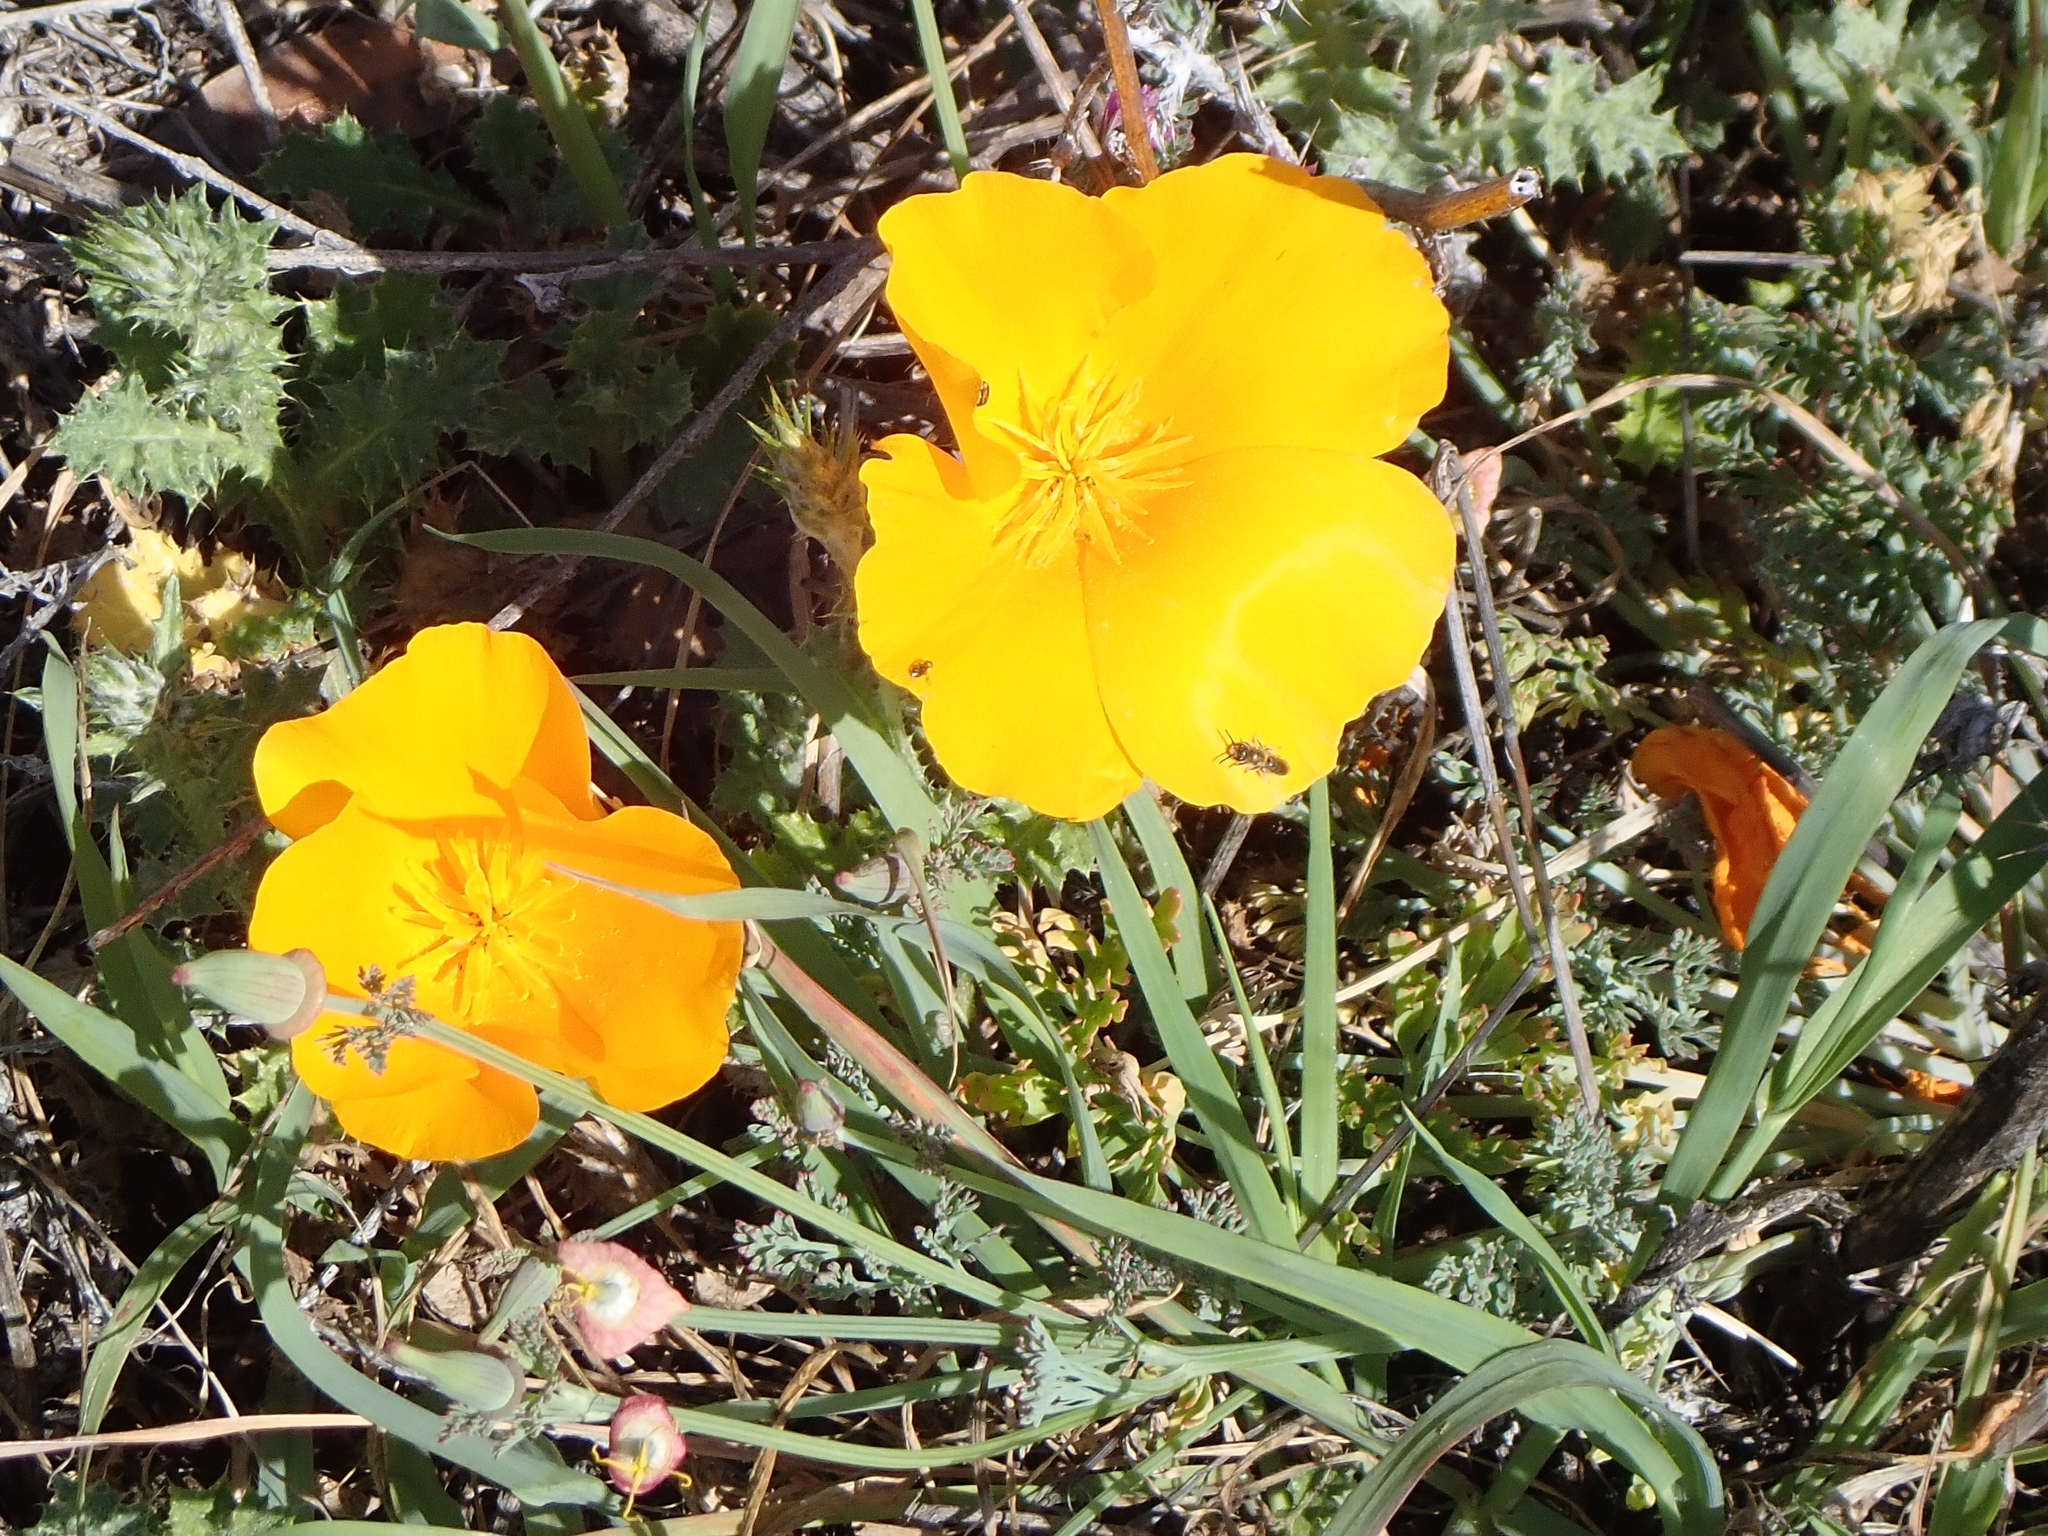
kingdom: Plantae
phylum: Tracheophyta
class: Magnoliopsida
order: Ranunculales
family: Papaveraceae
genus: Eschscholzia
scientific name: Eschscholzia californica
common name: California poppy
